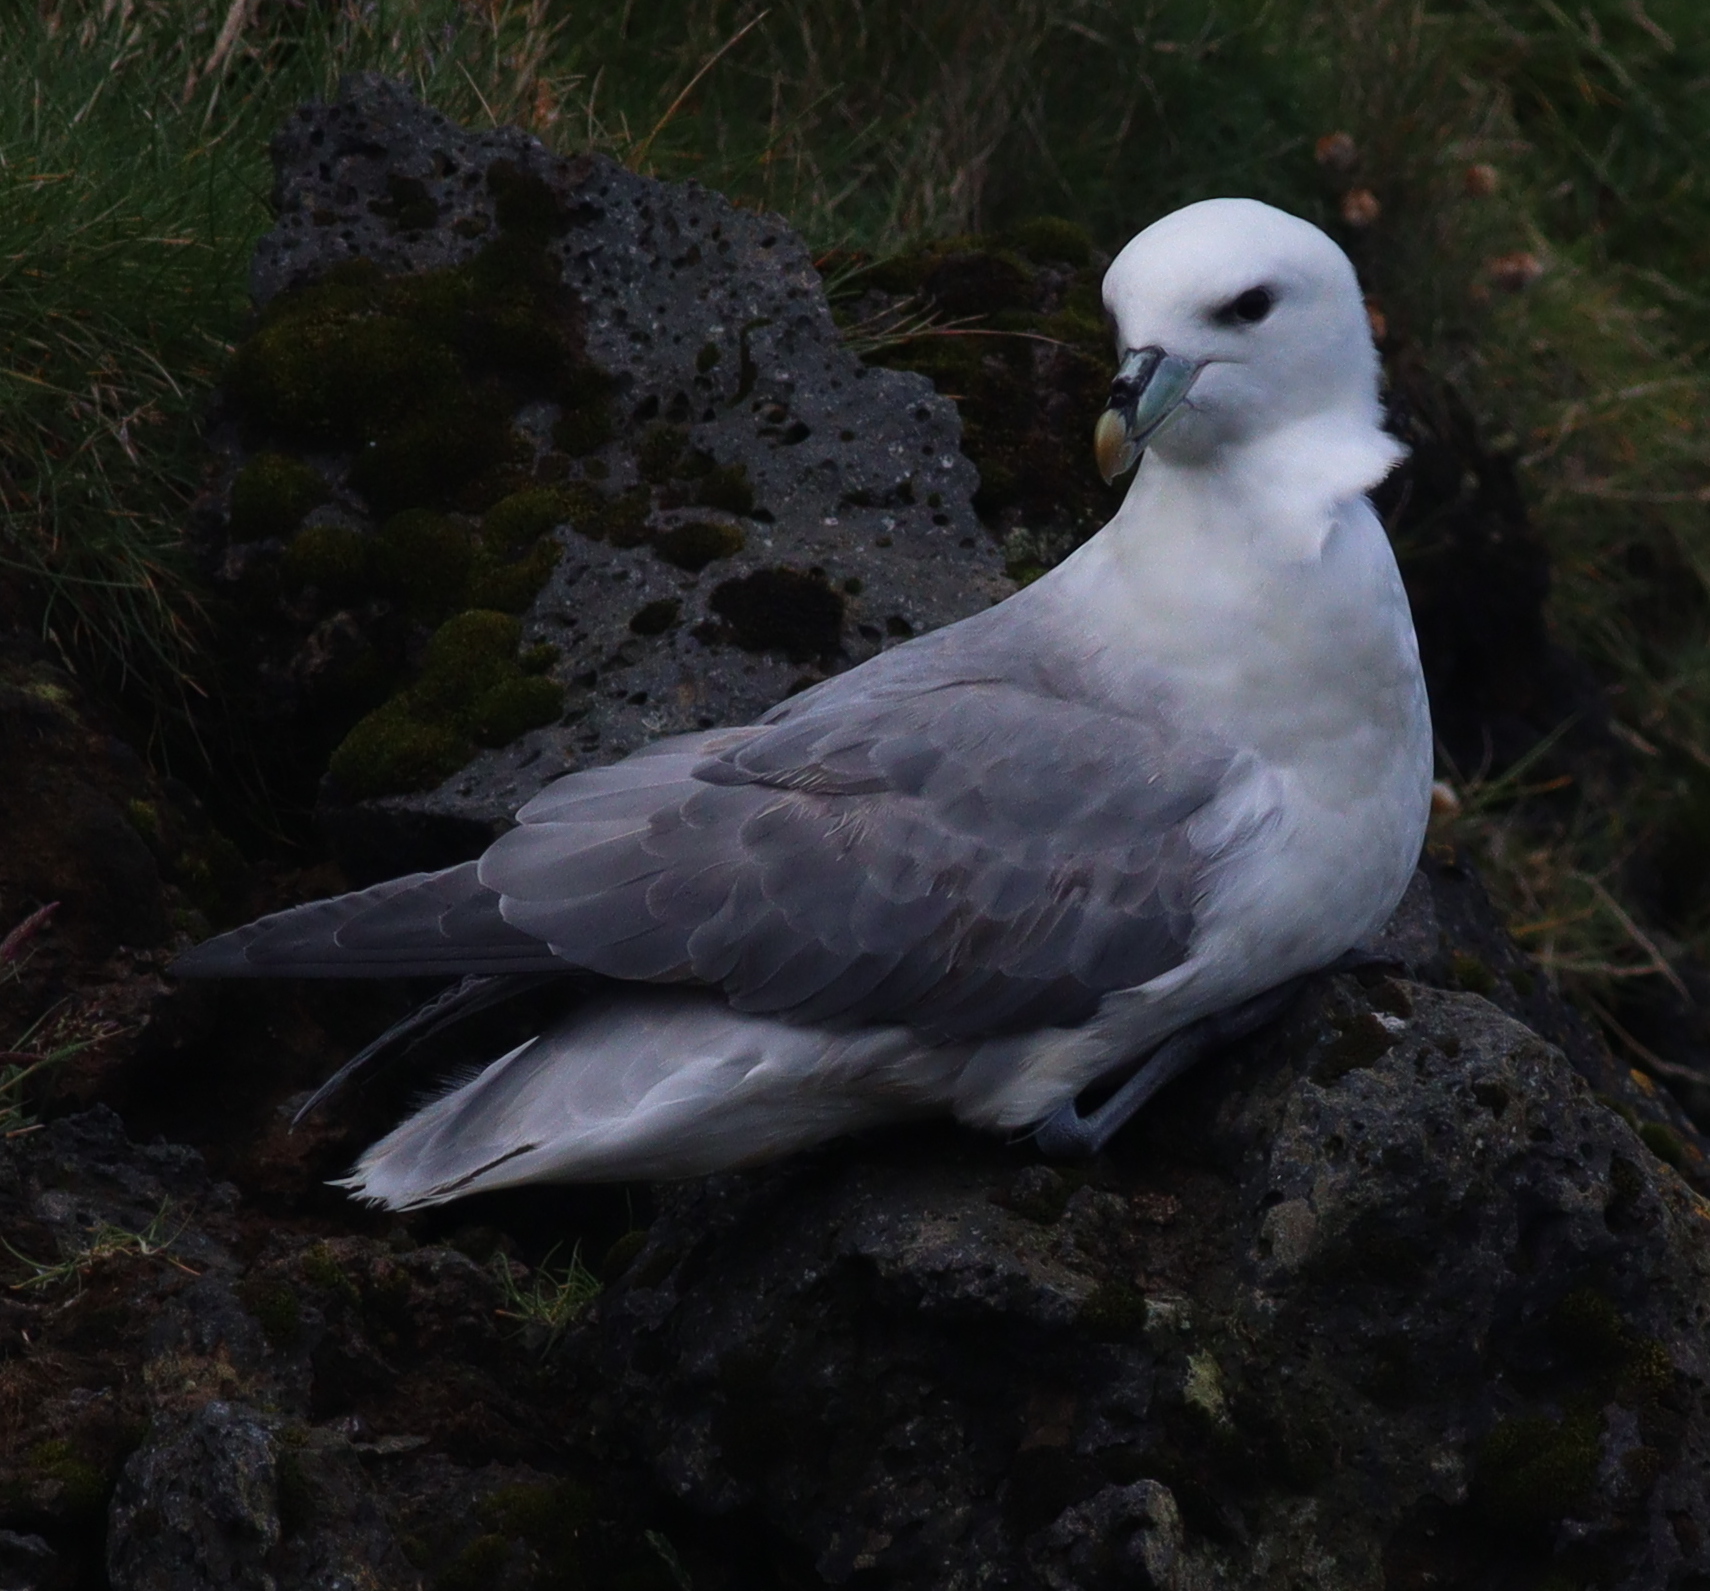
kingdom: Animalia
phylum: Chordata
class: Aves
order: Procellariiformes
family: Procellariidae
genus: Fulmarus
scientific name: Fulmarus glacialis
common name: Northern fulmar
